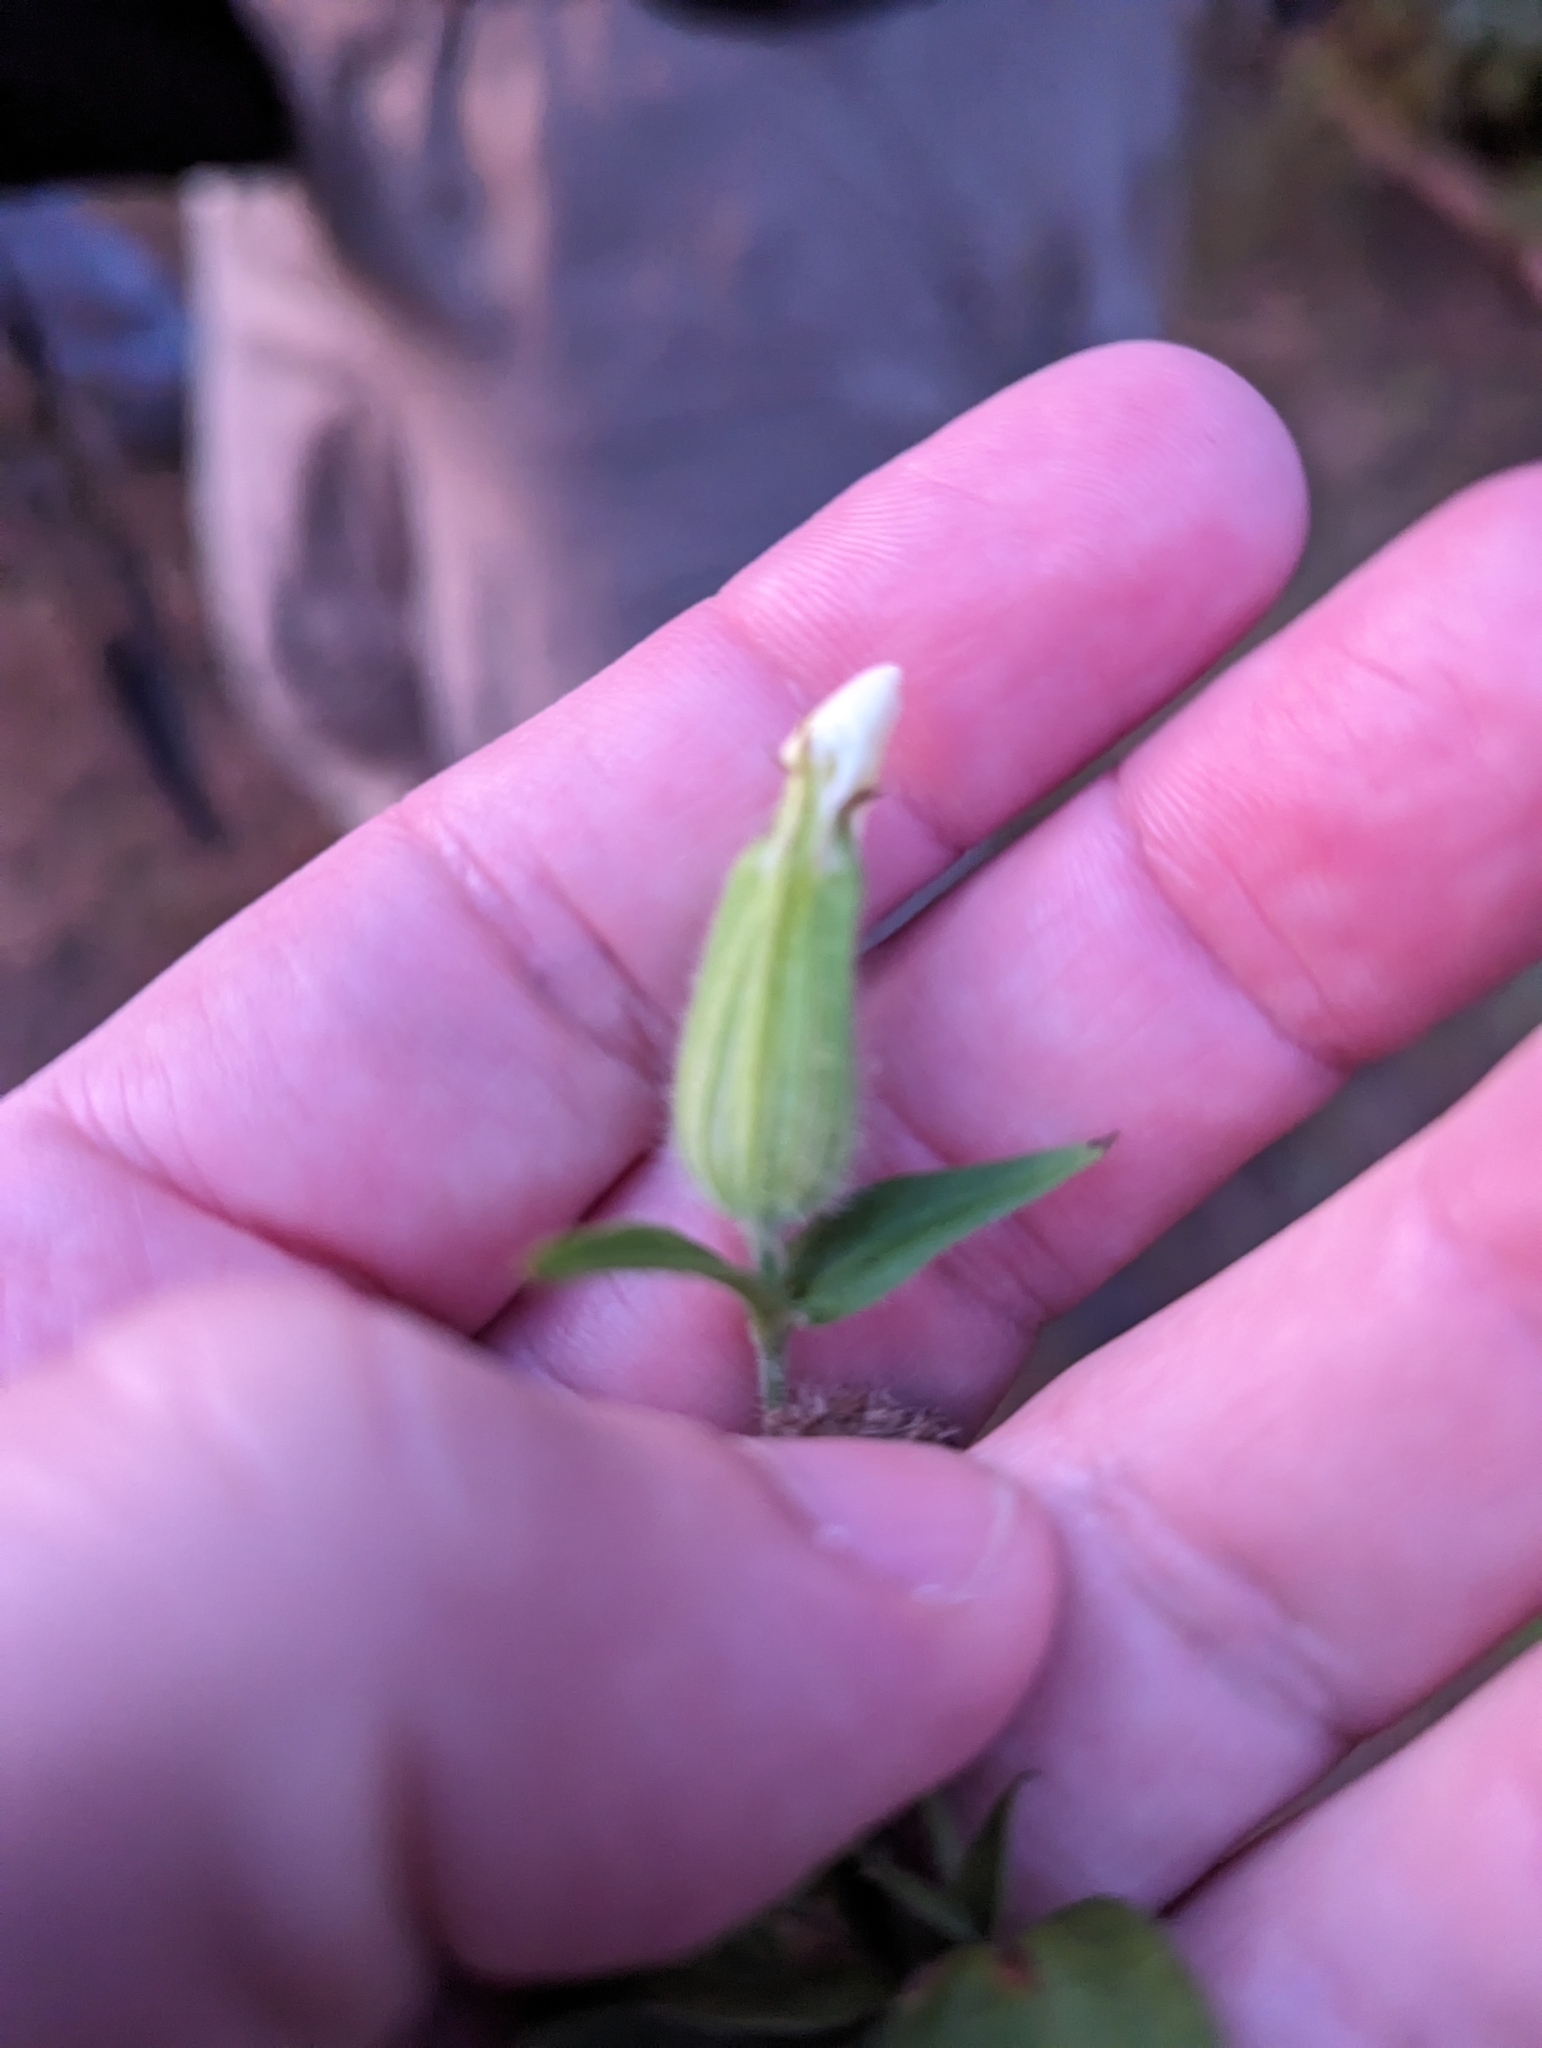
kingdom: Plantae
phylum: Tracheophyta
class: Magnoliopsida
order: Caryophyllales
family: Caryophyllaceae
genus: Silene
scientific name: Silene latifolia
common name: White campion
